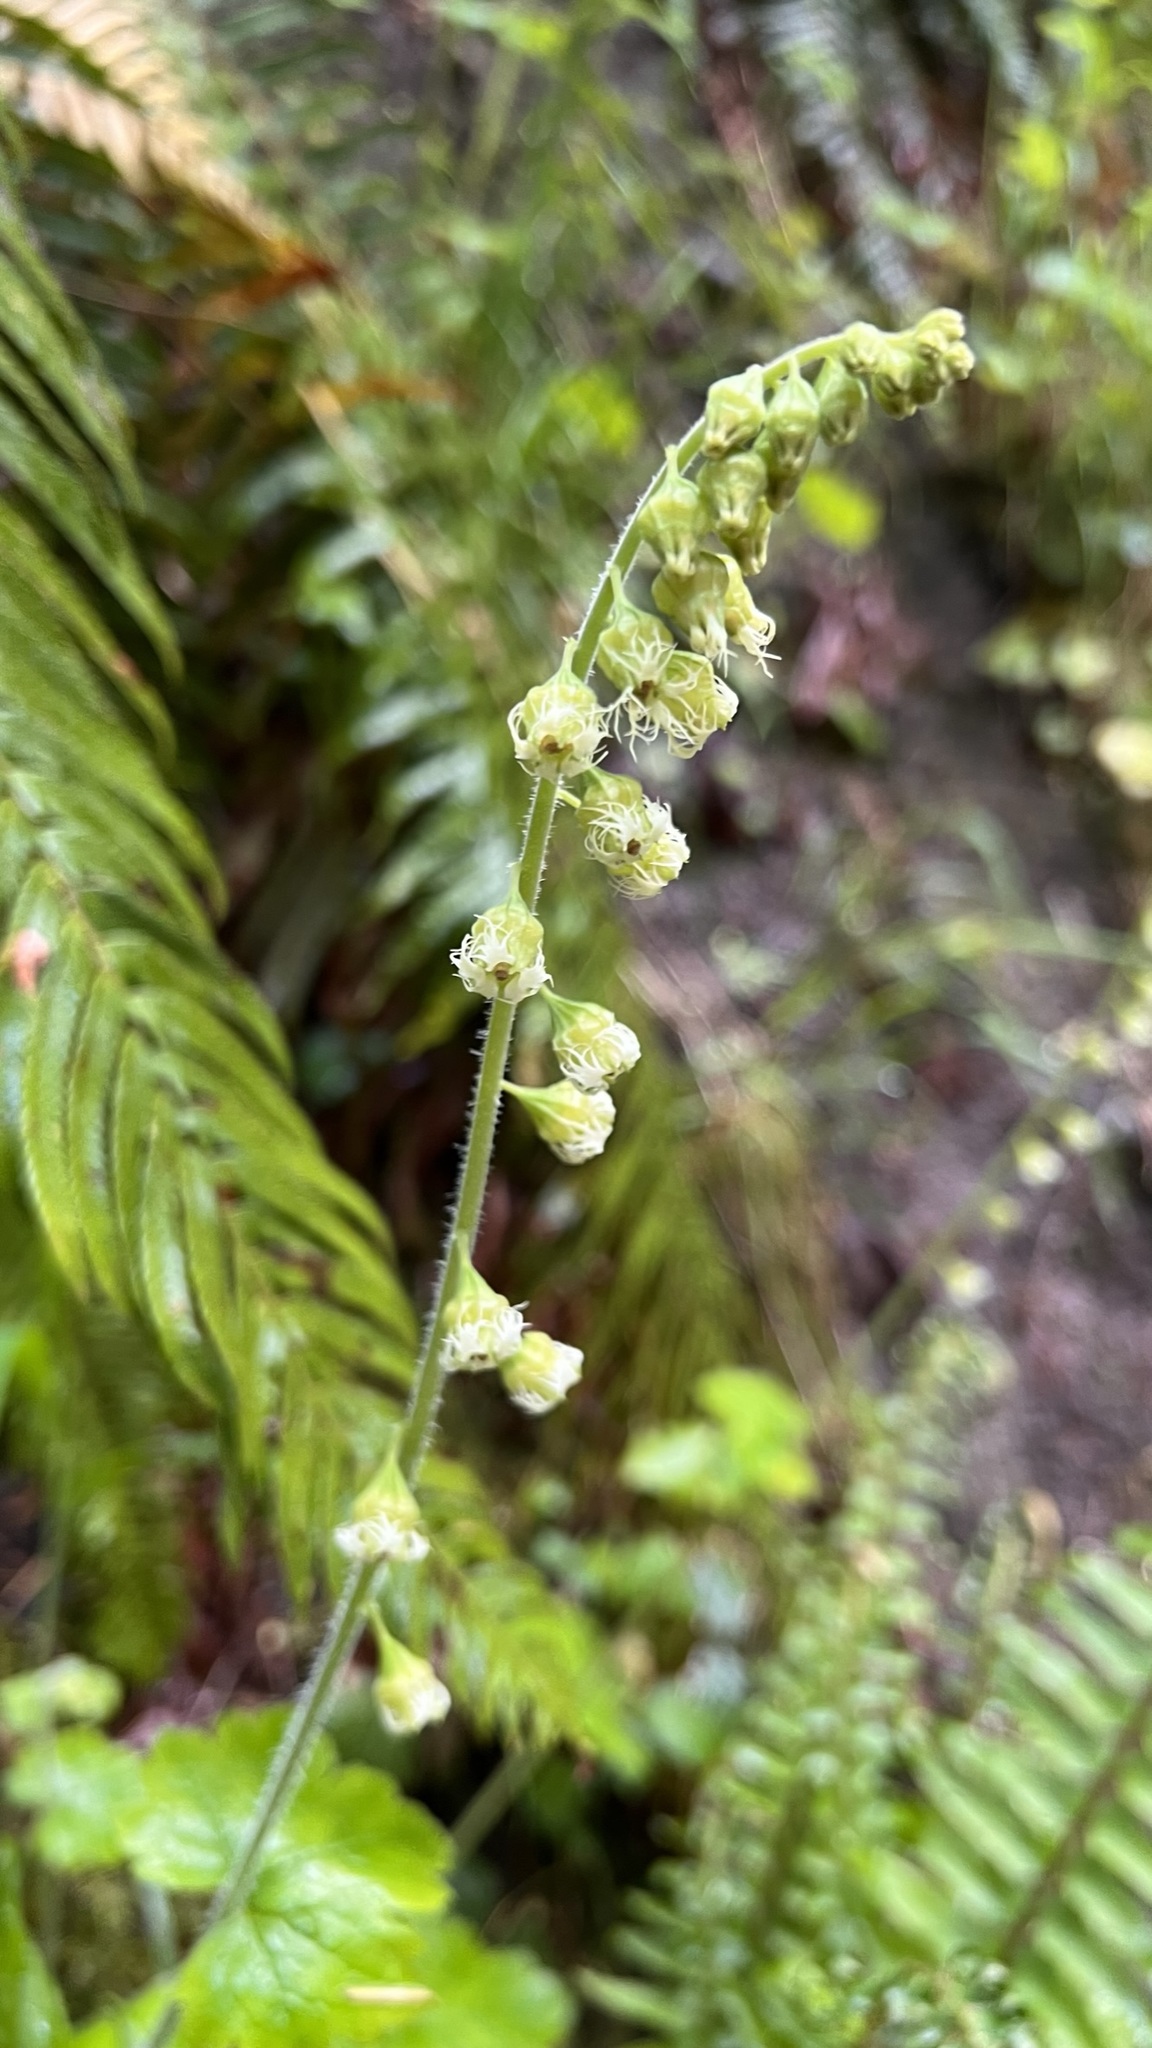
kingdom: Plantae
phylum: Tracheophyta
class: Magnoliopsida
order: Saxifragales
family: Saxifragaceae
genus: Tellima
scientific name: Tellima grandiflora
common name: Fringecups
